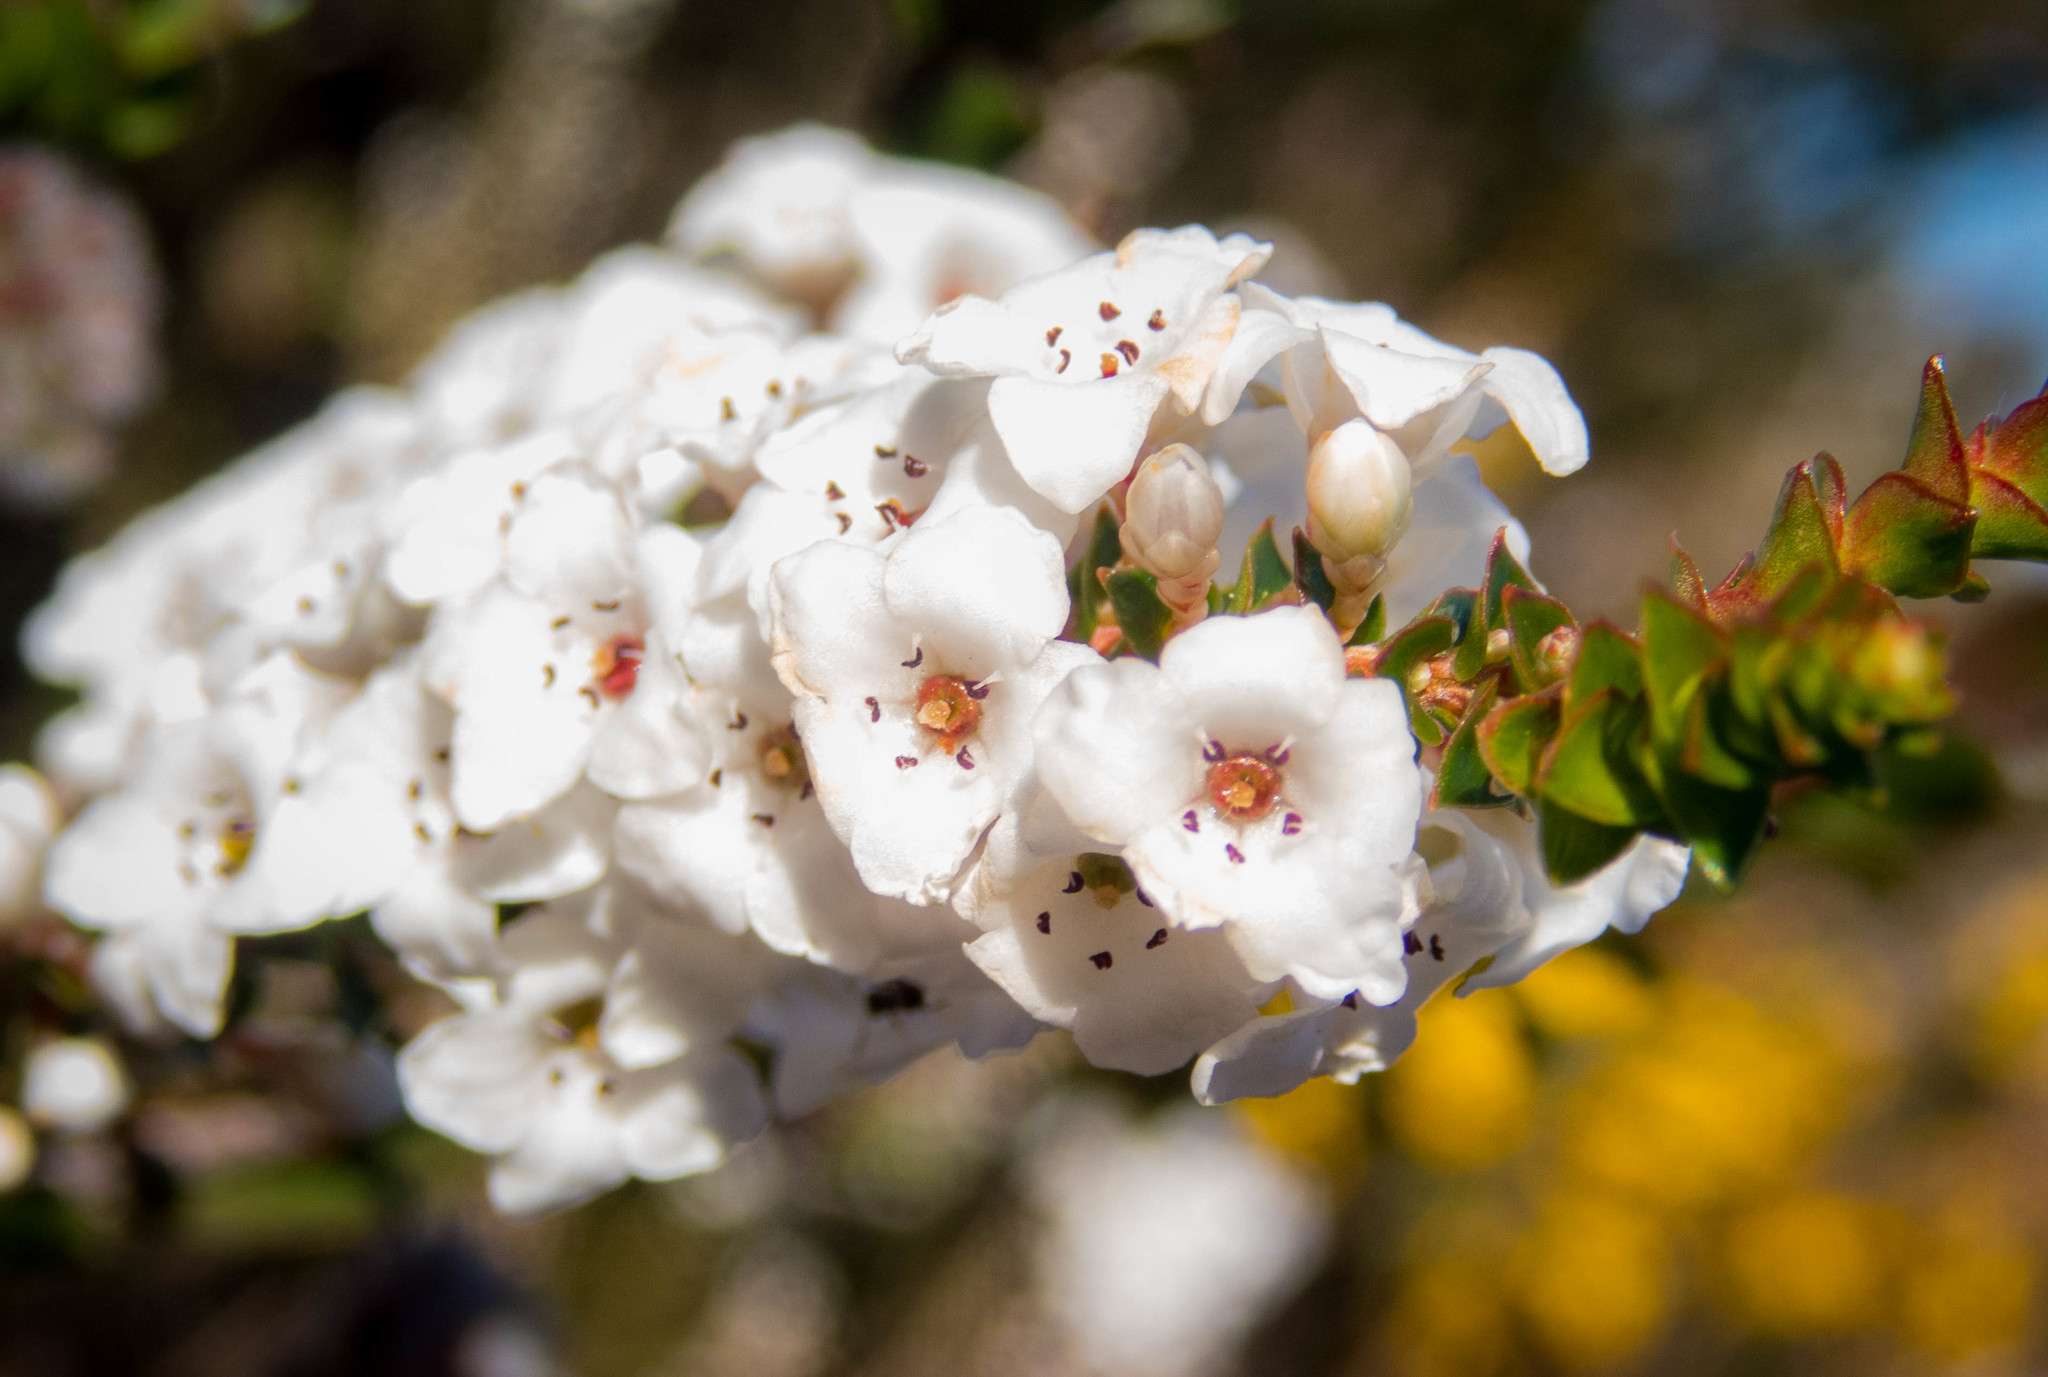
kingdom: Plantae
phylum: Tracheophyta
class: Magnoliopsida
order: Ericales
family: Ericaceae
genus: Epacris
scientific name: Epacris microphylla
